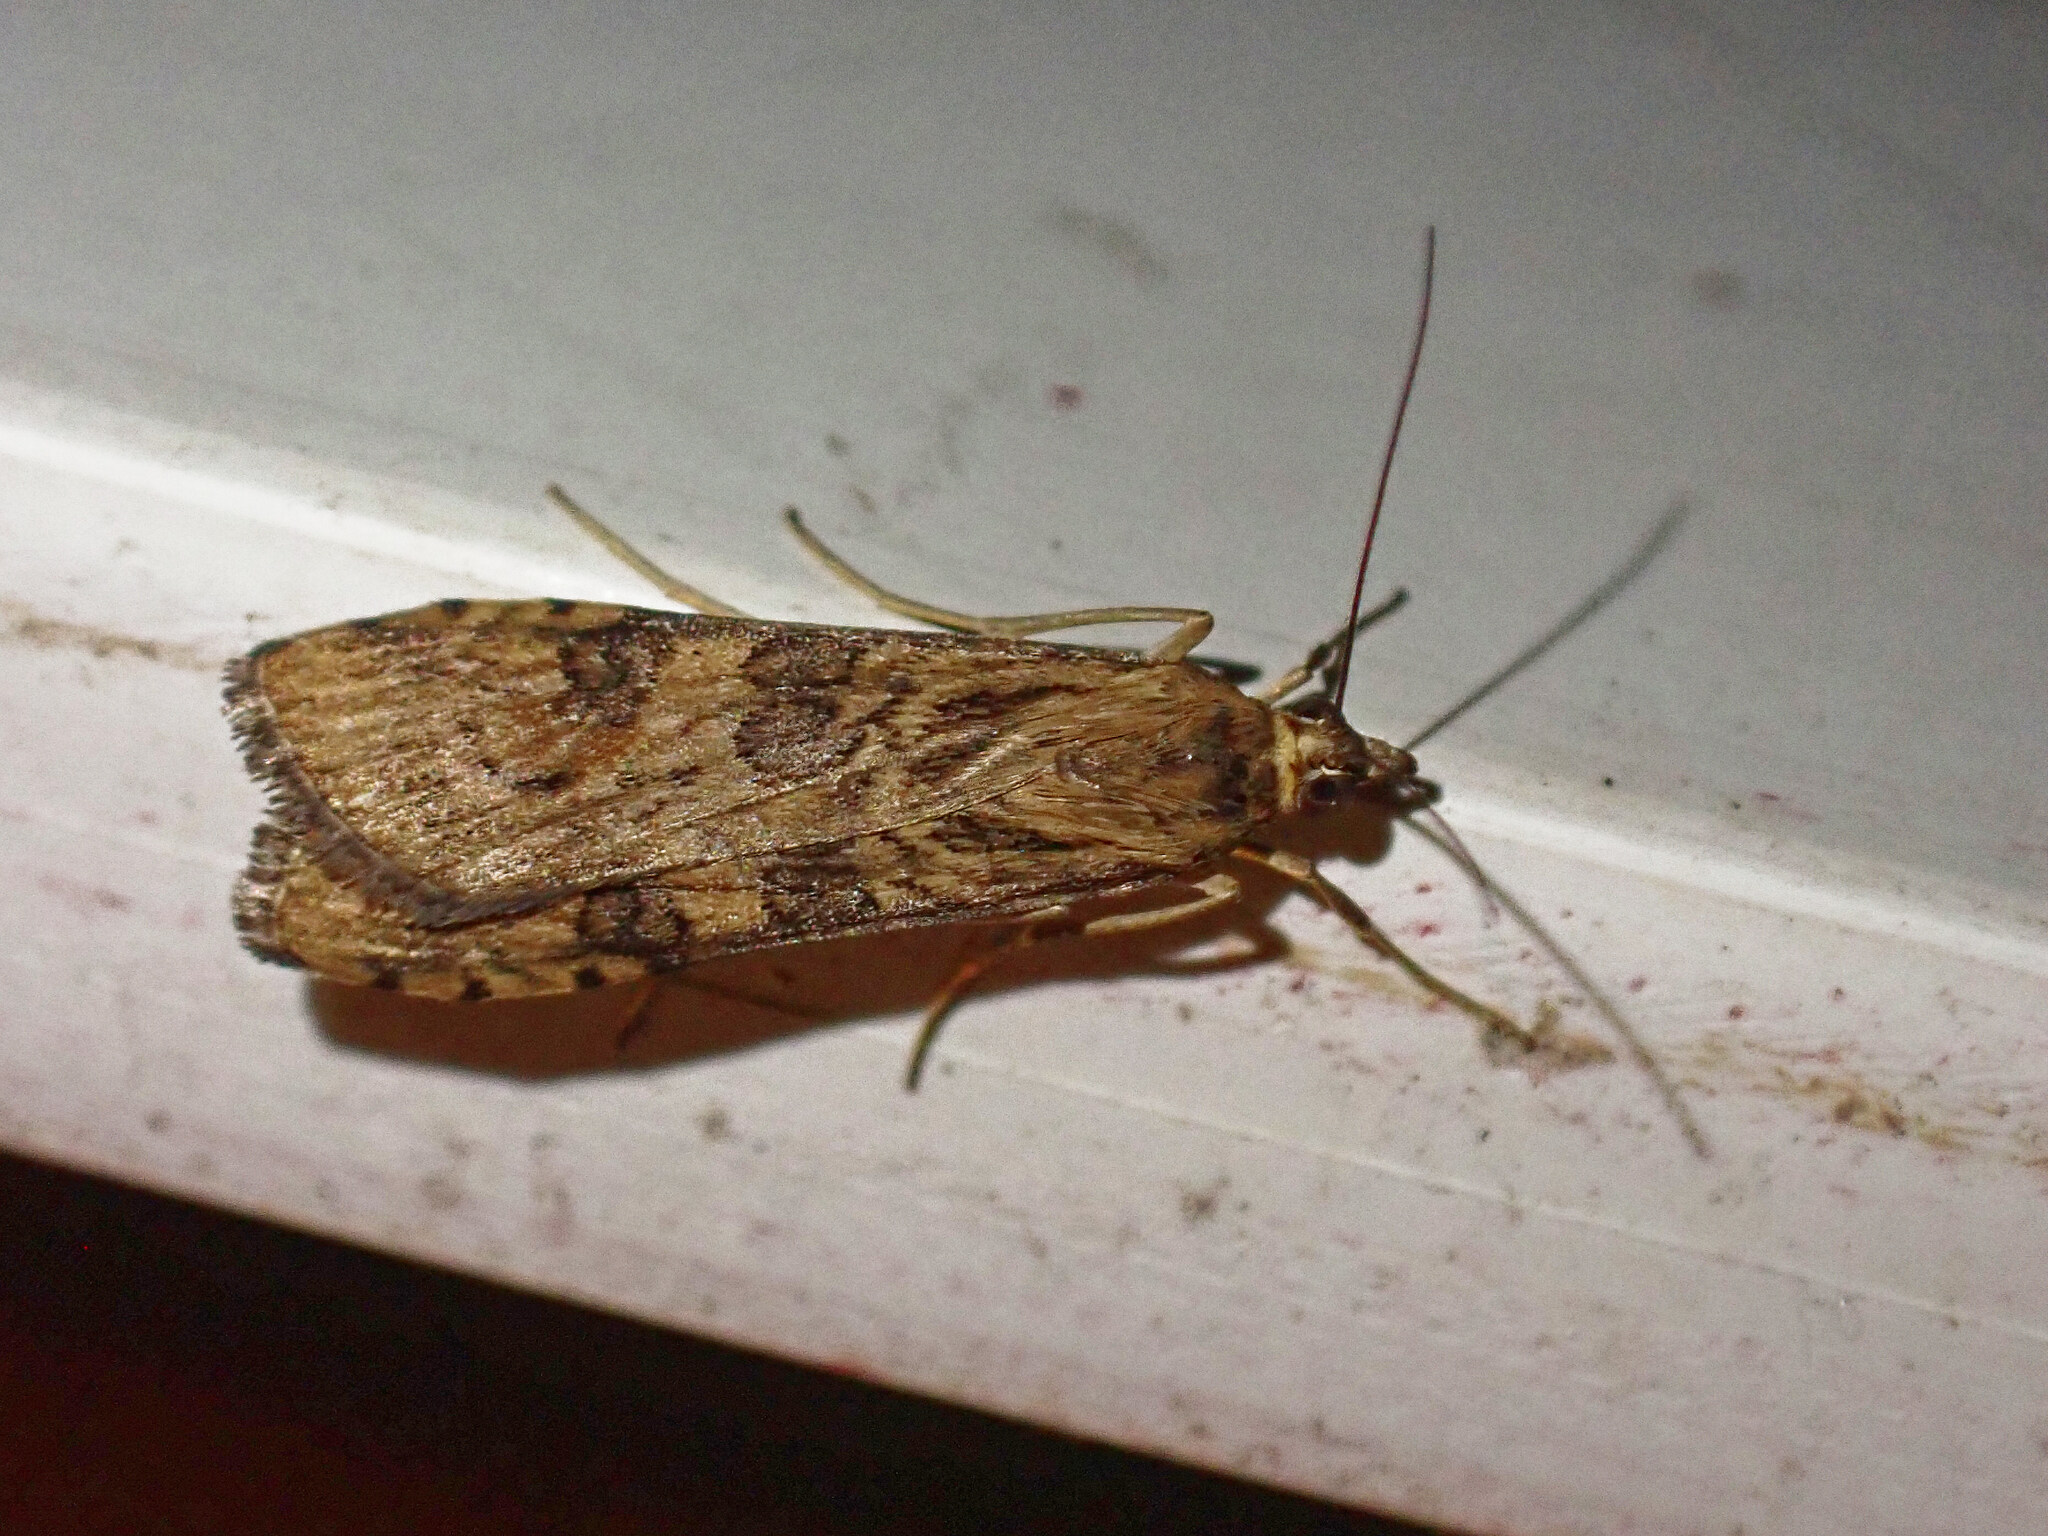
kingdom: Animalia
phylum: Arthropoda
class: Insecta
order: Lepidoptera
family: Crambidae
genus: Nomophila
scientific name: Nomophila noctuella
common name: Rush veneer
